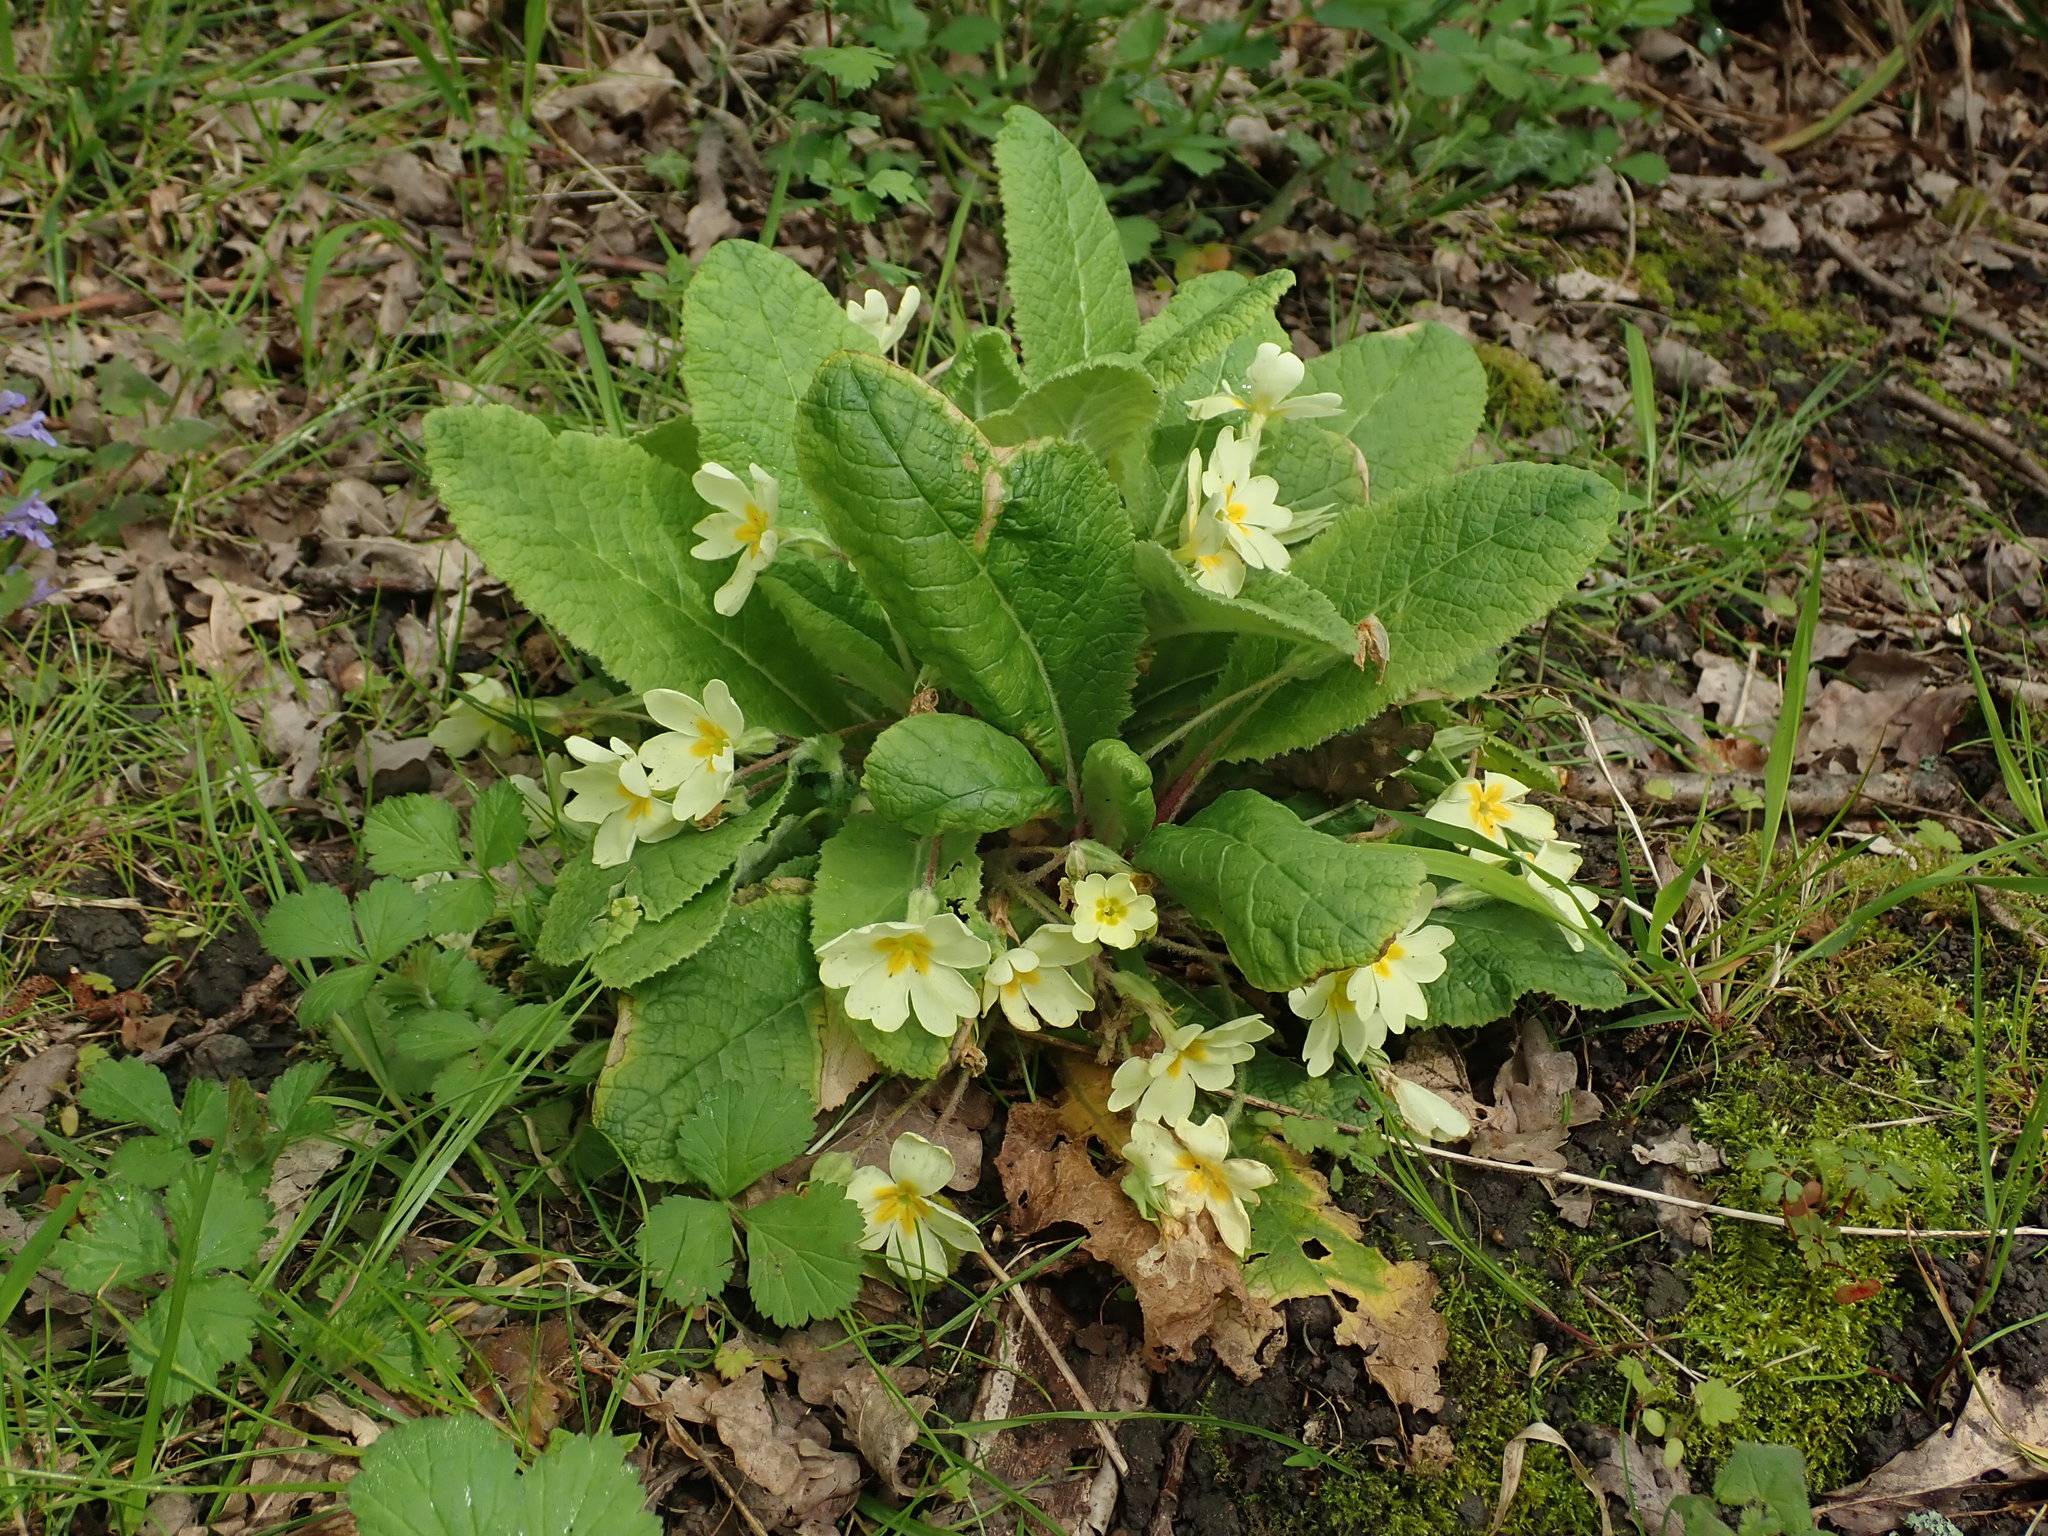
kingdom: Plantae
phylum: Tracheophyta
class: Magnoliopsida
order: Ericales
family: Primulaceae
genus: Primula
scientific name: Primula vulgaris
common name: Primrose
